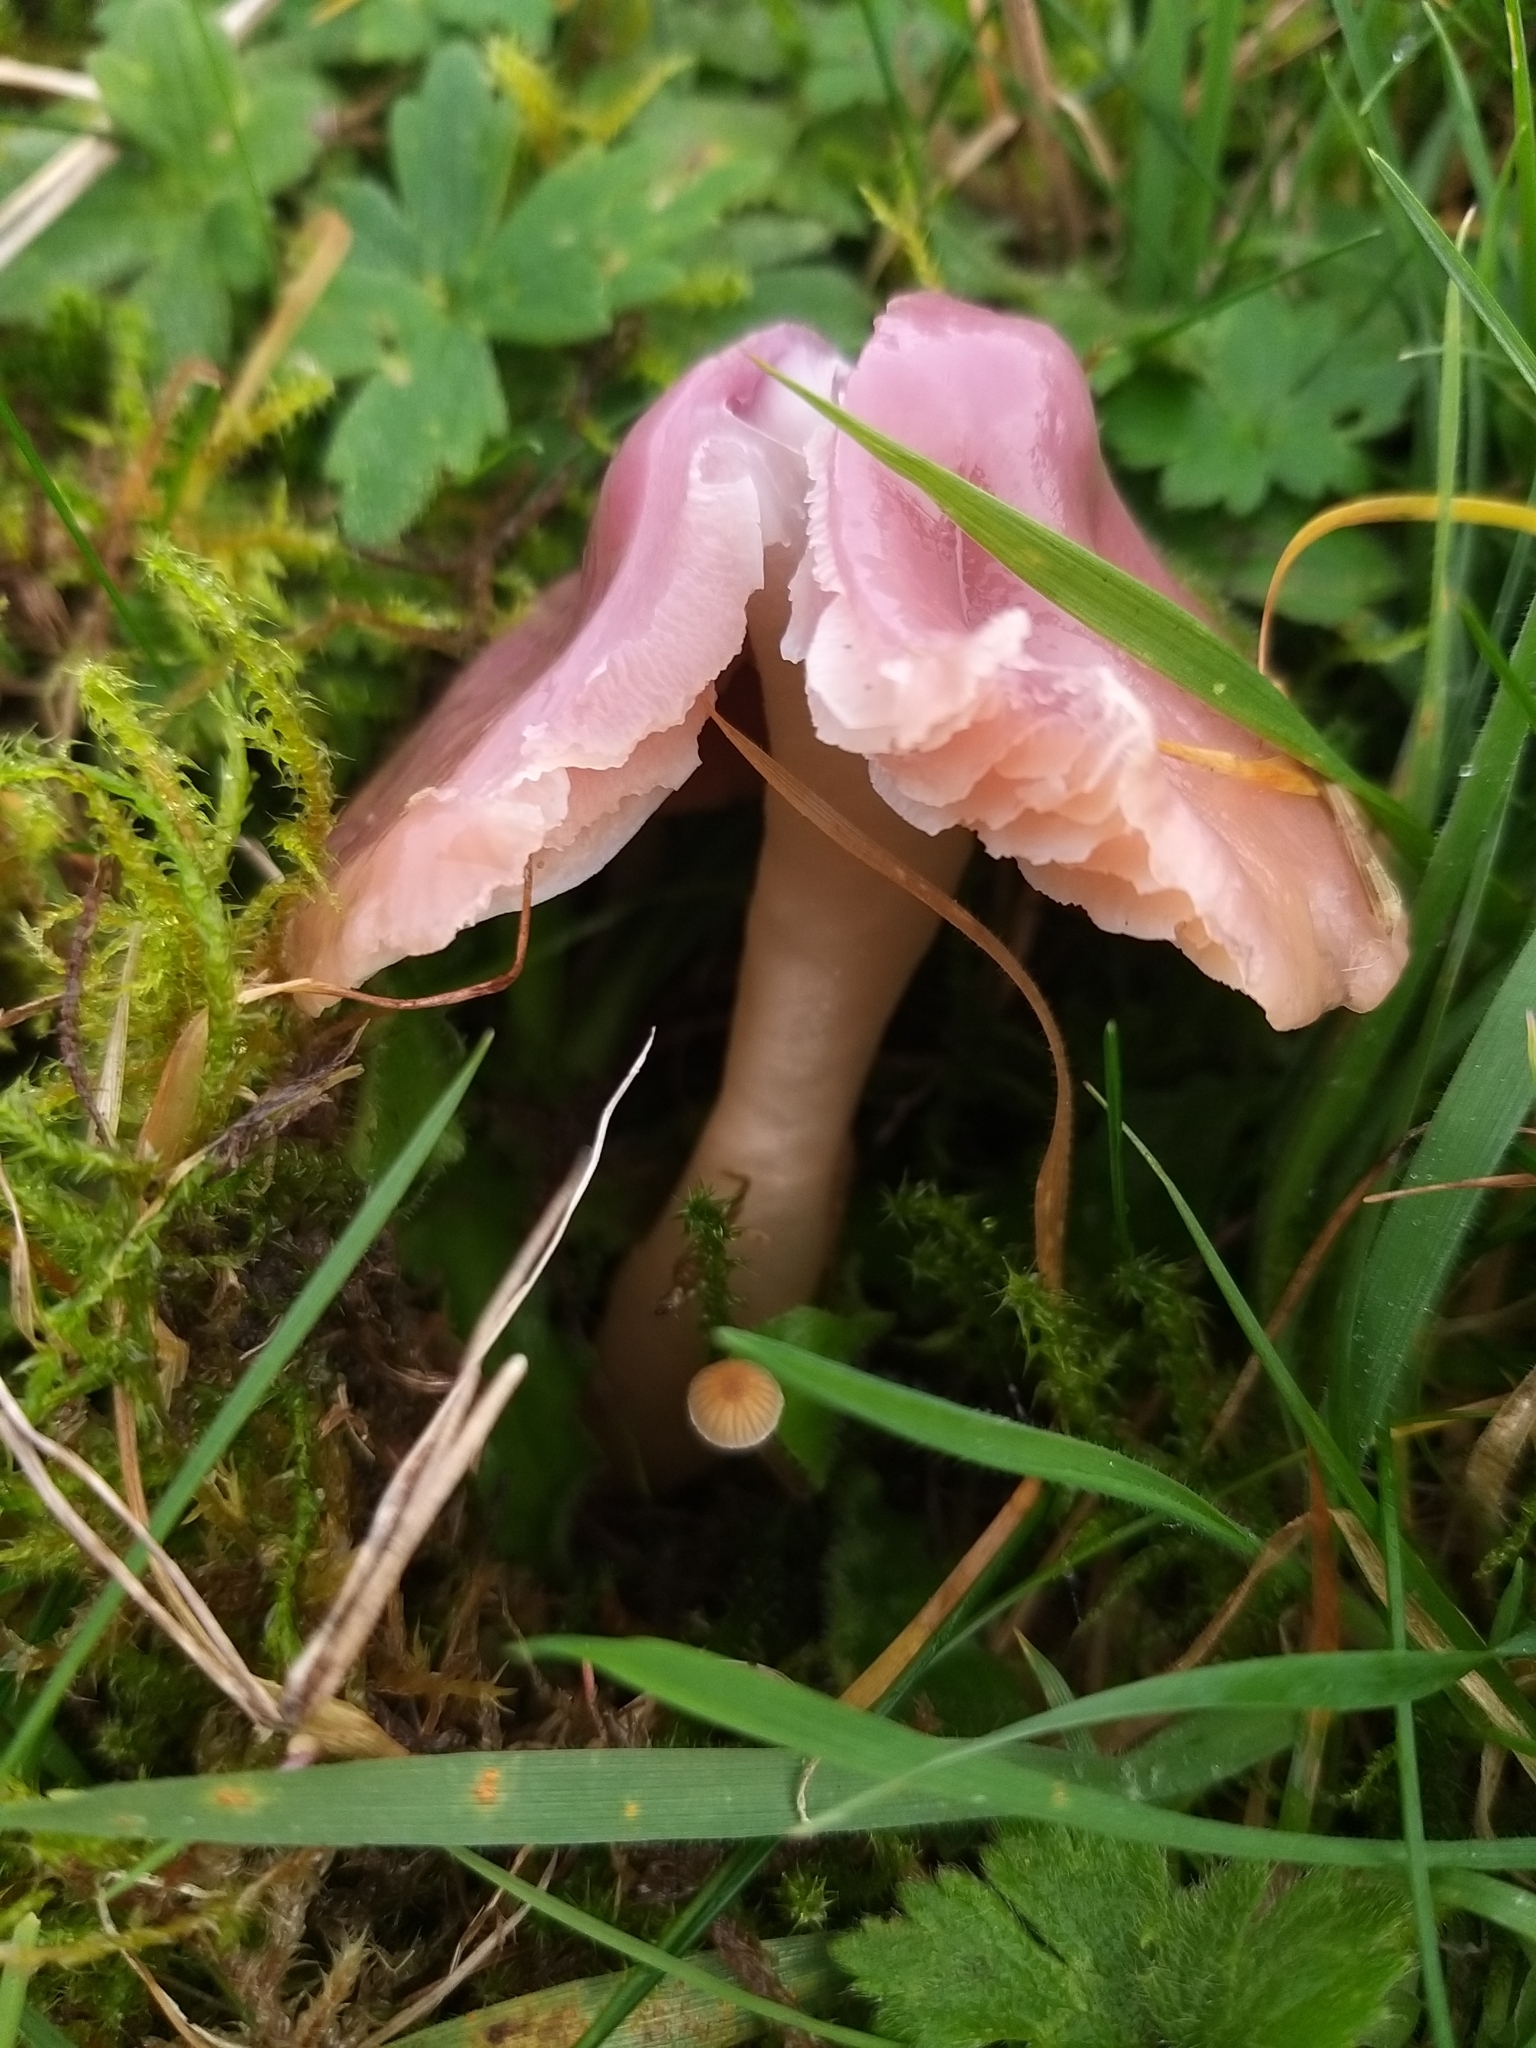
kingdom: Fungi
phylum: Basidiomycota
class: Agaricomycetes
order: Agaricales
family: Hygrophoraceae
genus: Gliophorus
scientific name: Gliophorus reginae
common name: Jubilee waxcap
